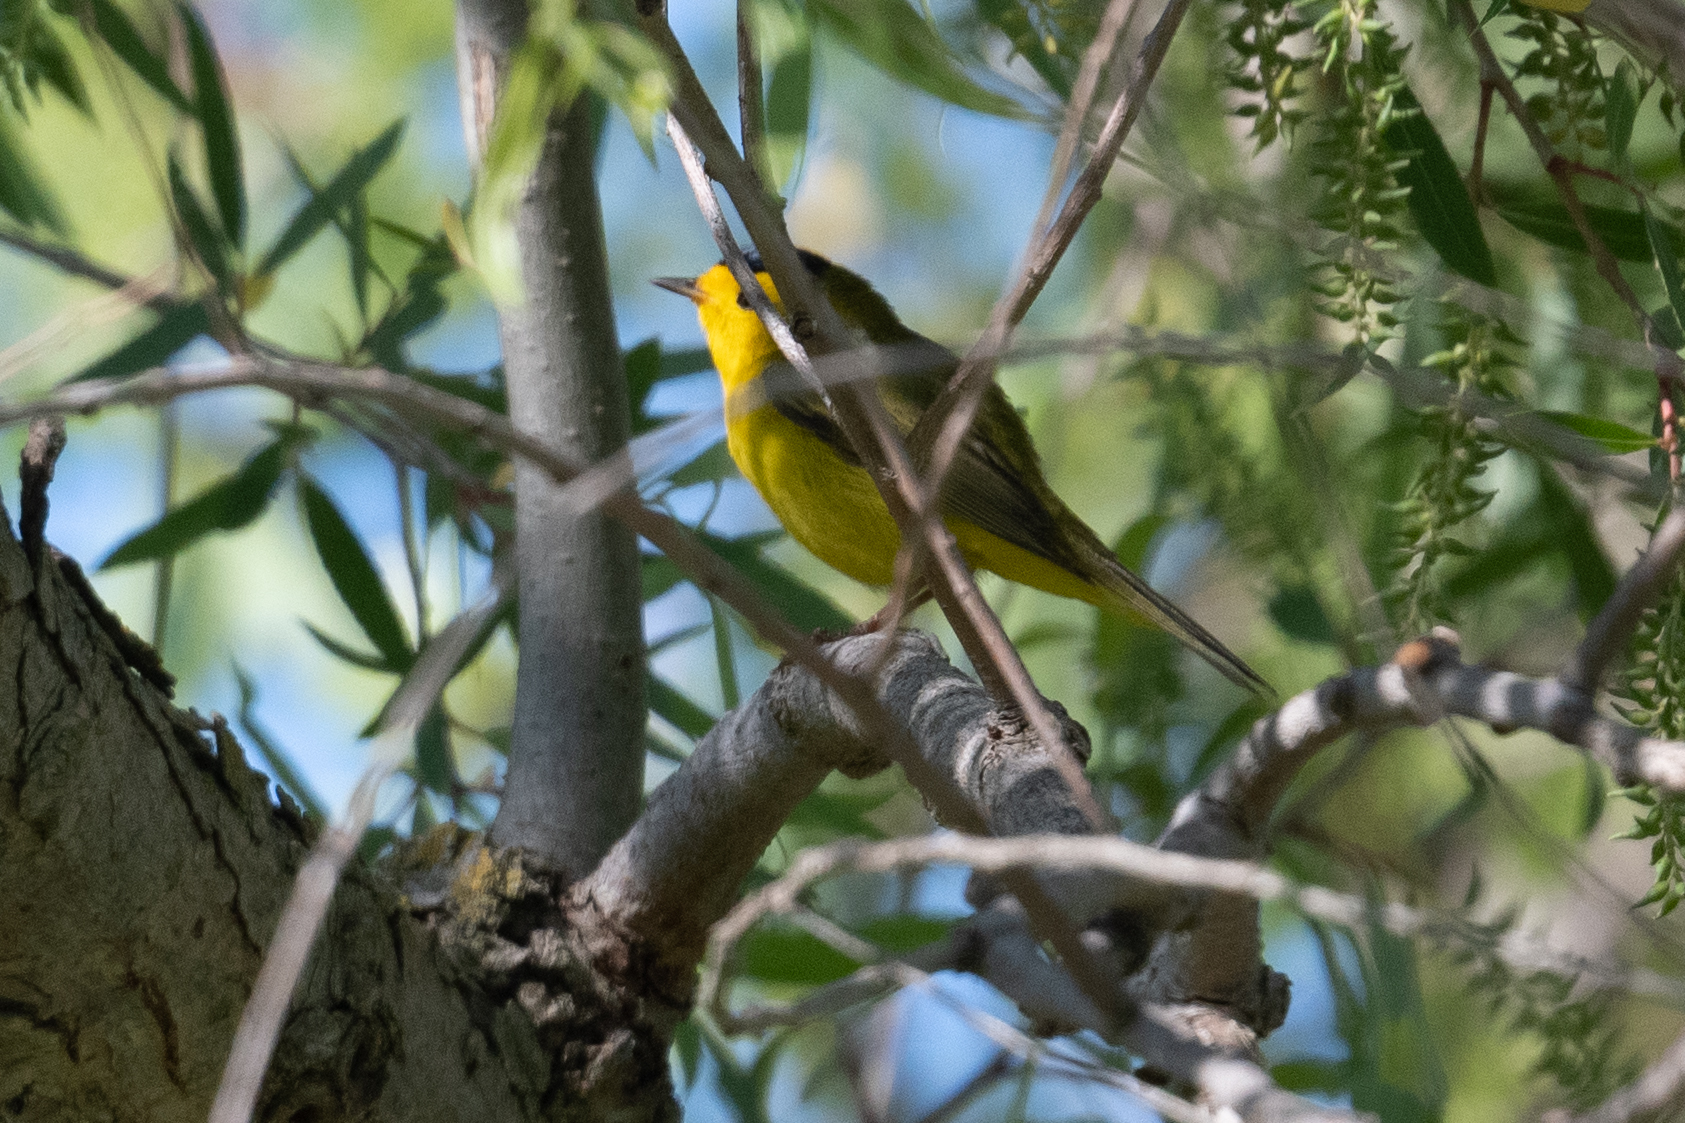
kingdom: Animalia
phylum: Chordata
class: Aves
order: Passeriformes
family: Parulidae
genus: Cardellina
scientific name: Cardellina pusilla
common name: Wilson's warbler
